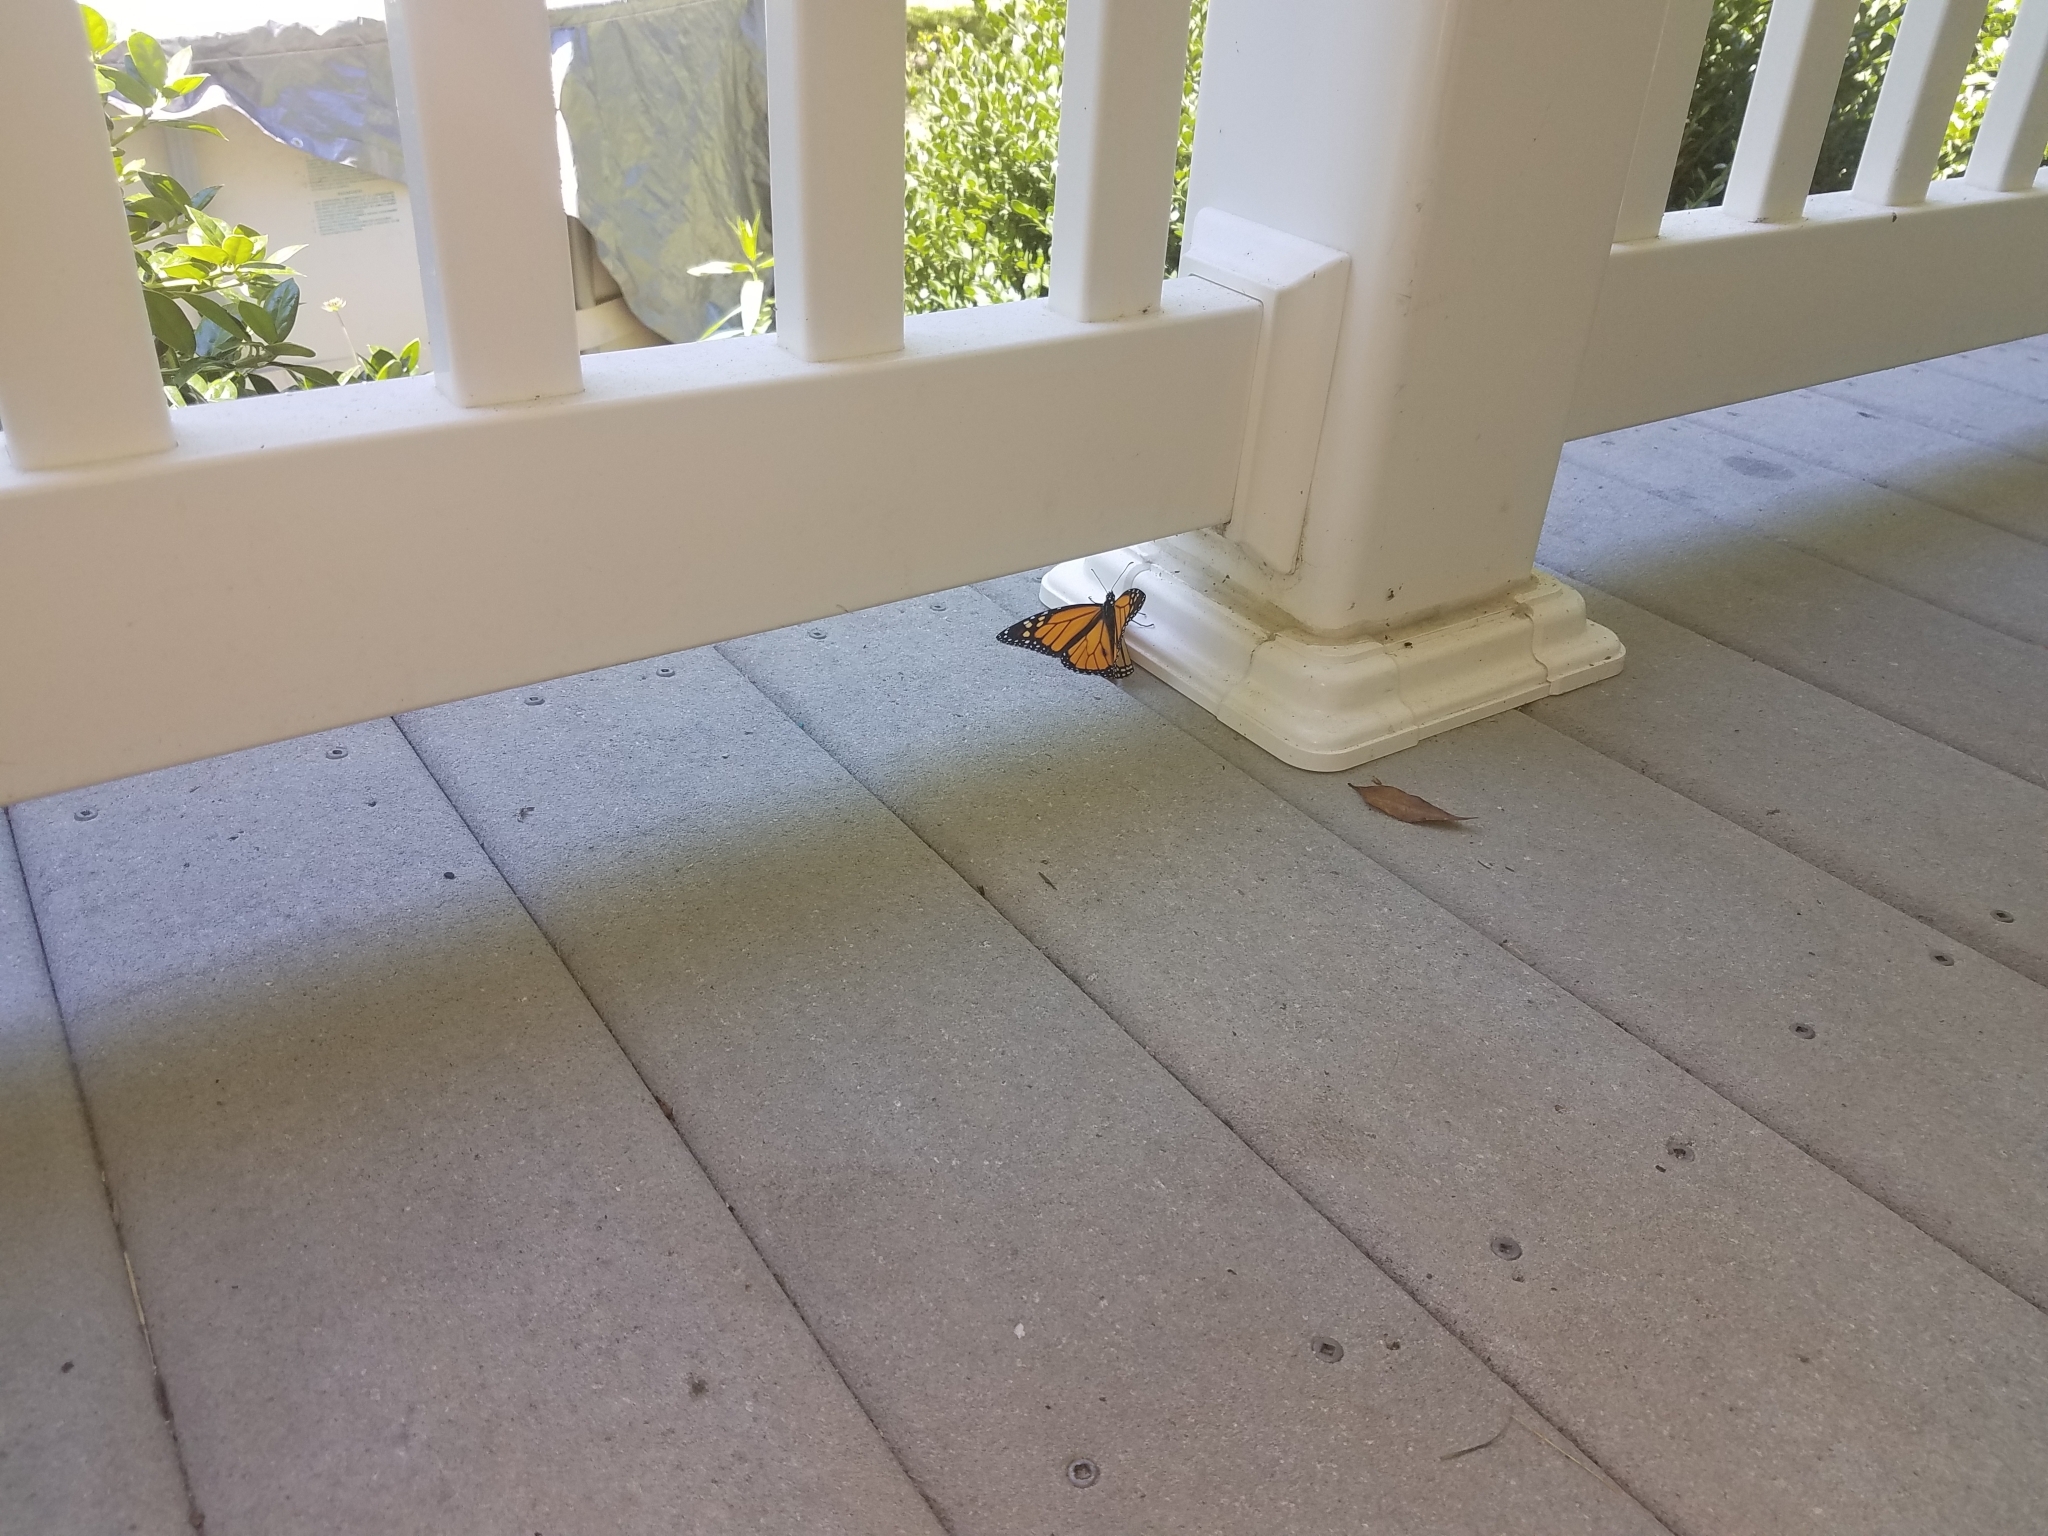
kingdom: Animalia
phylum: Arthropoda
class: Insecta
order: Lepidoptera
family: Nymphalidae
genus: Danaus
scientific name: Danaus plexippus
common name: Monarch
